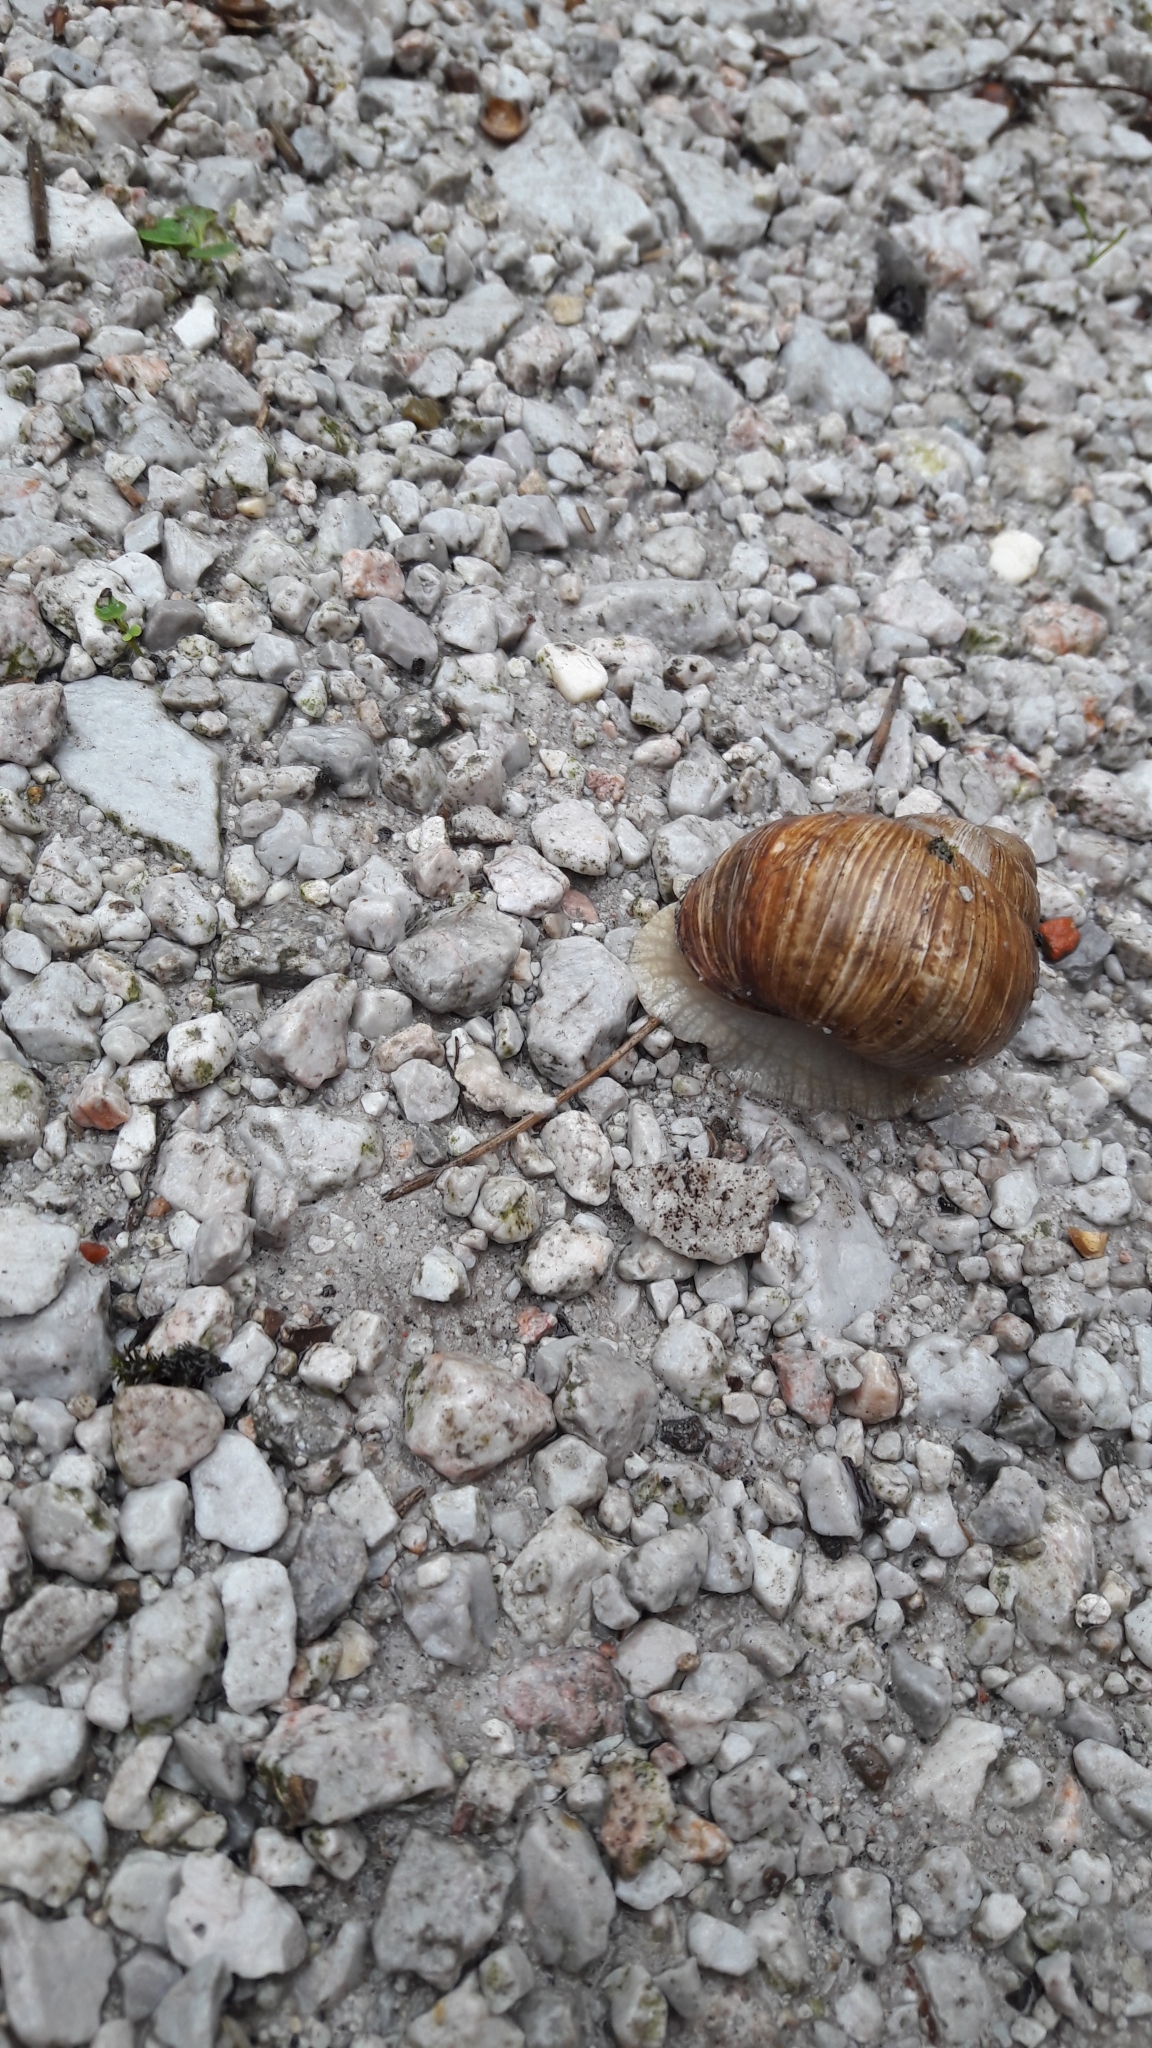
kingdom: Animalia
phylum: Mollusca
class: Gastropoda
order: Stylommatophora
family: Helicidae
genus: Helix
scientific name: Helix pomatia
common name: Roman snail
